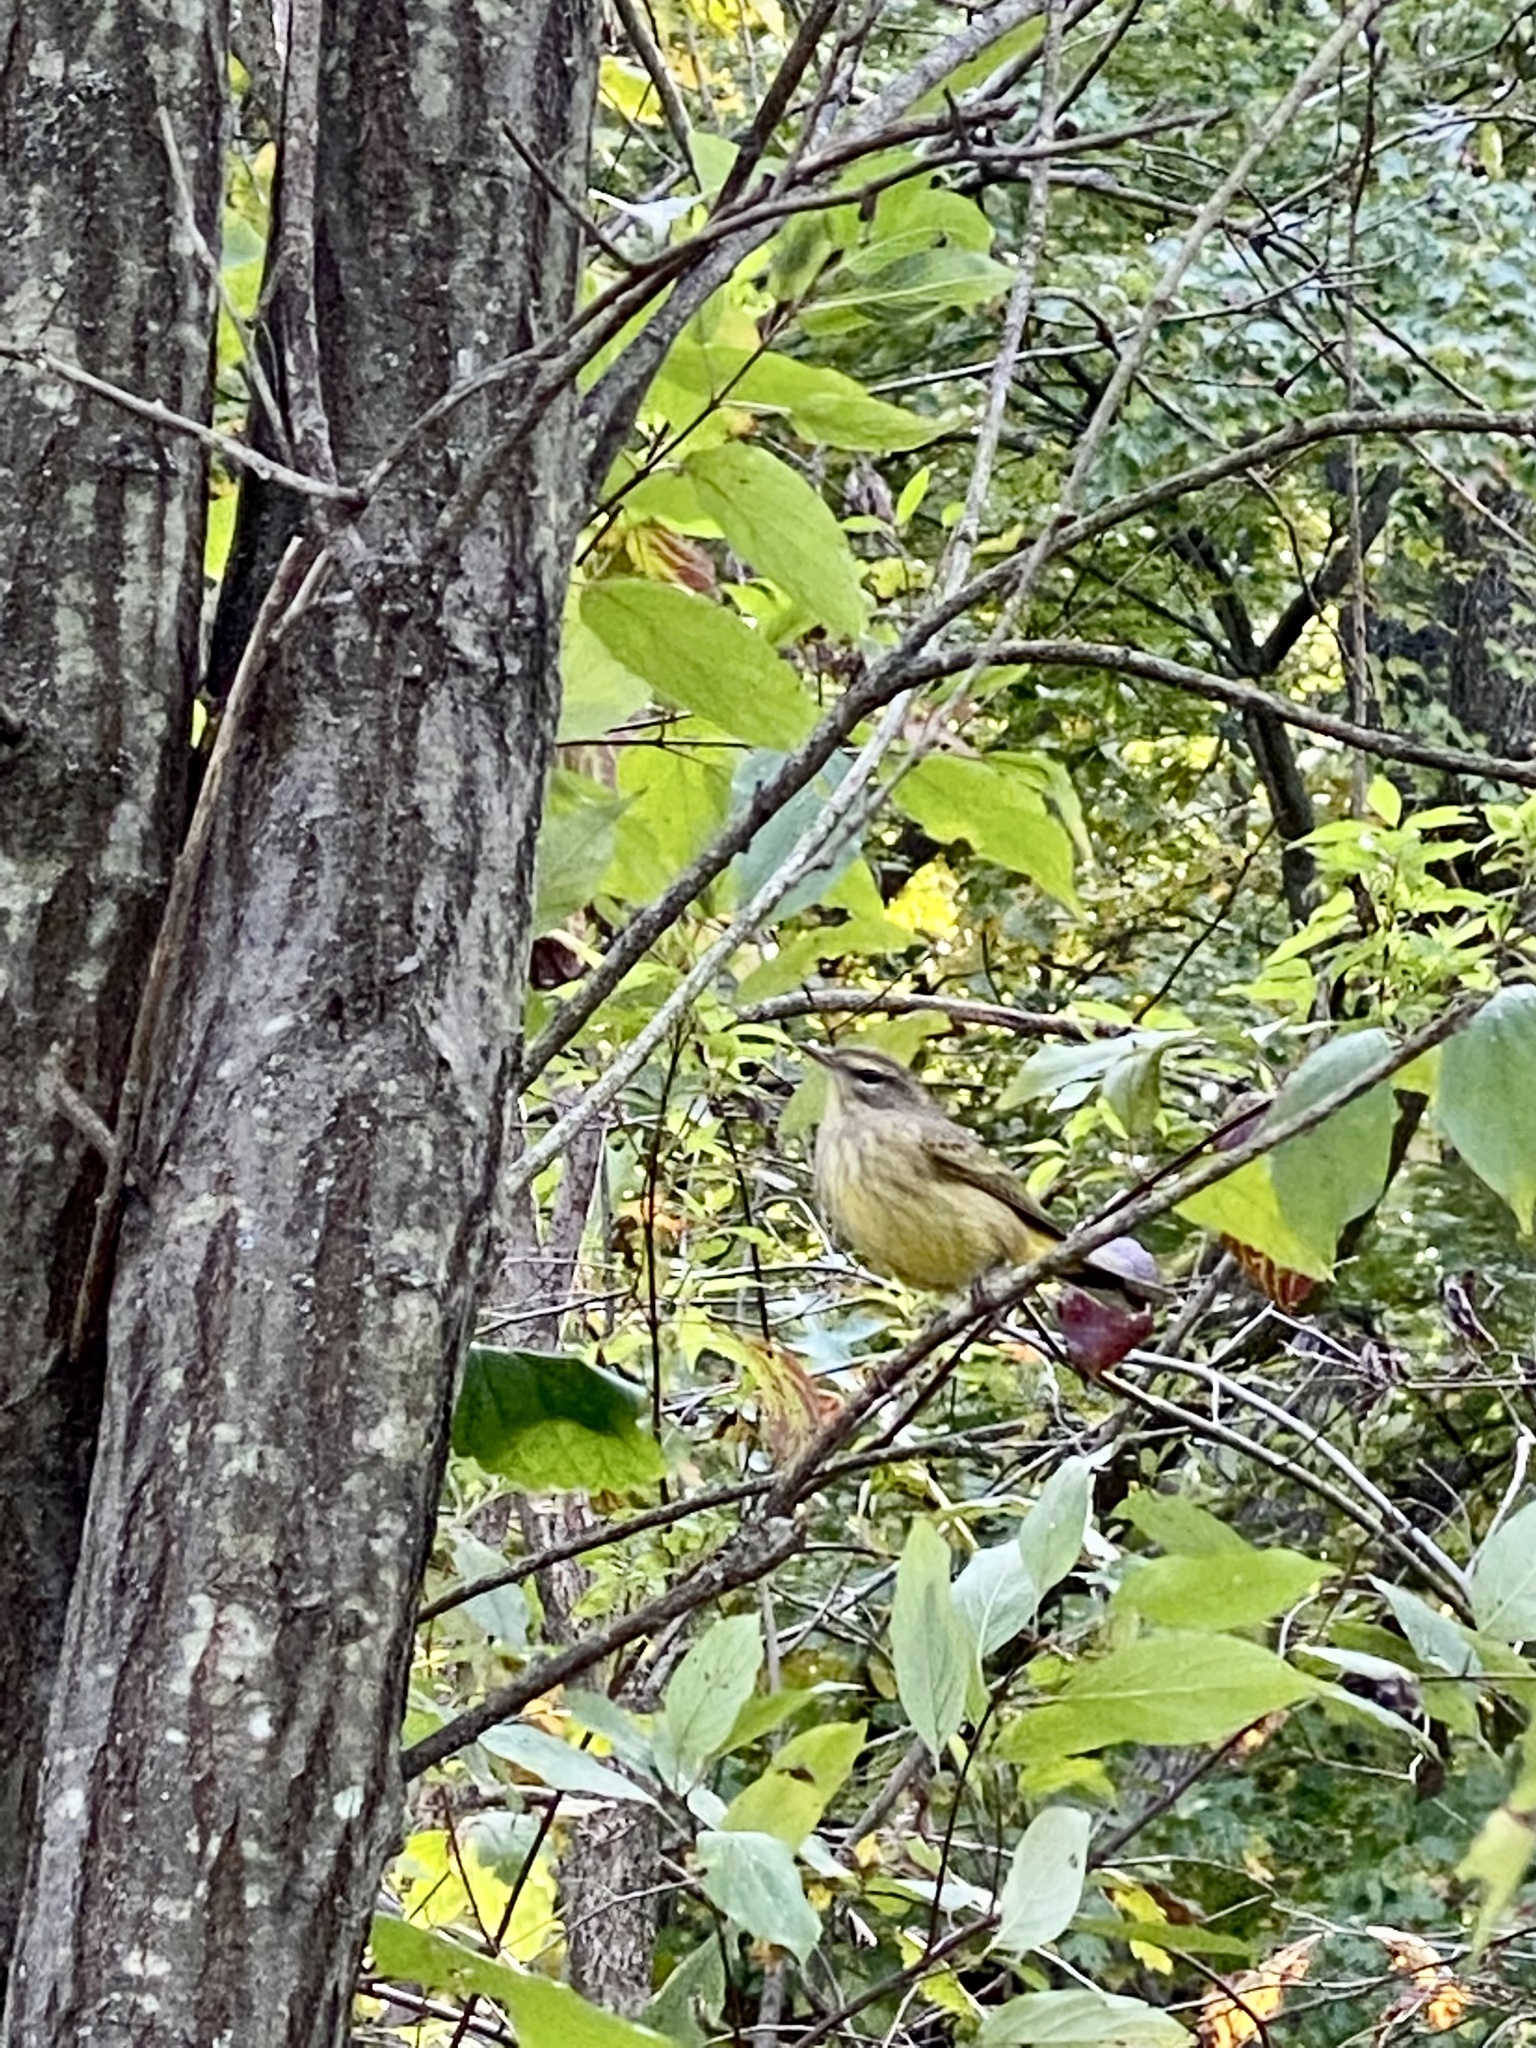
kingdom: Animalia
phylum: Chordata
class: Aves
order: Passeriformes
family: Parulidae
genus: Setophaga
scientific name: Setophaga palmarum
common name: Palm warbler
